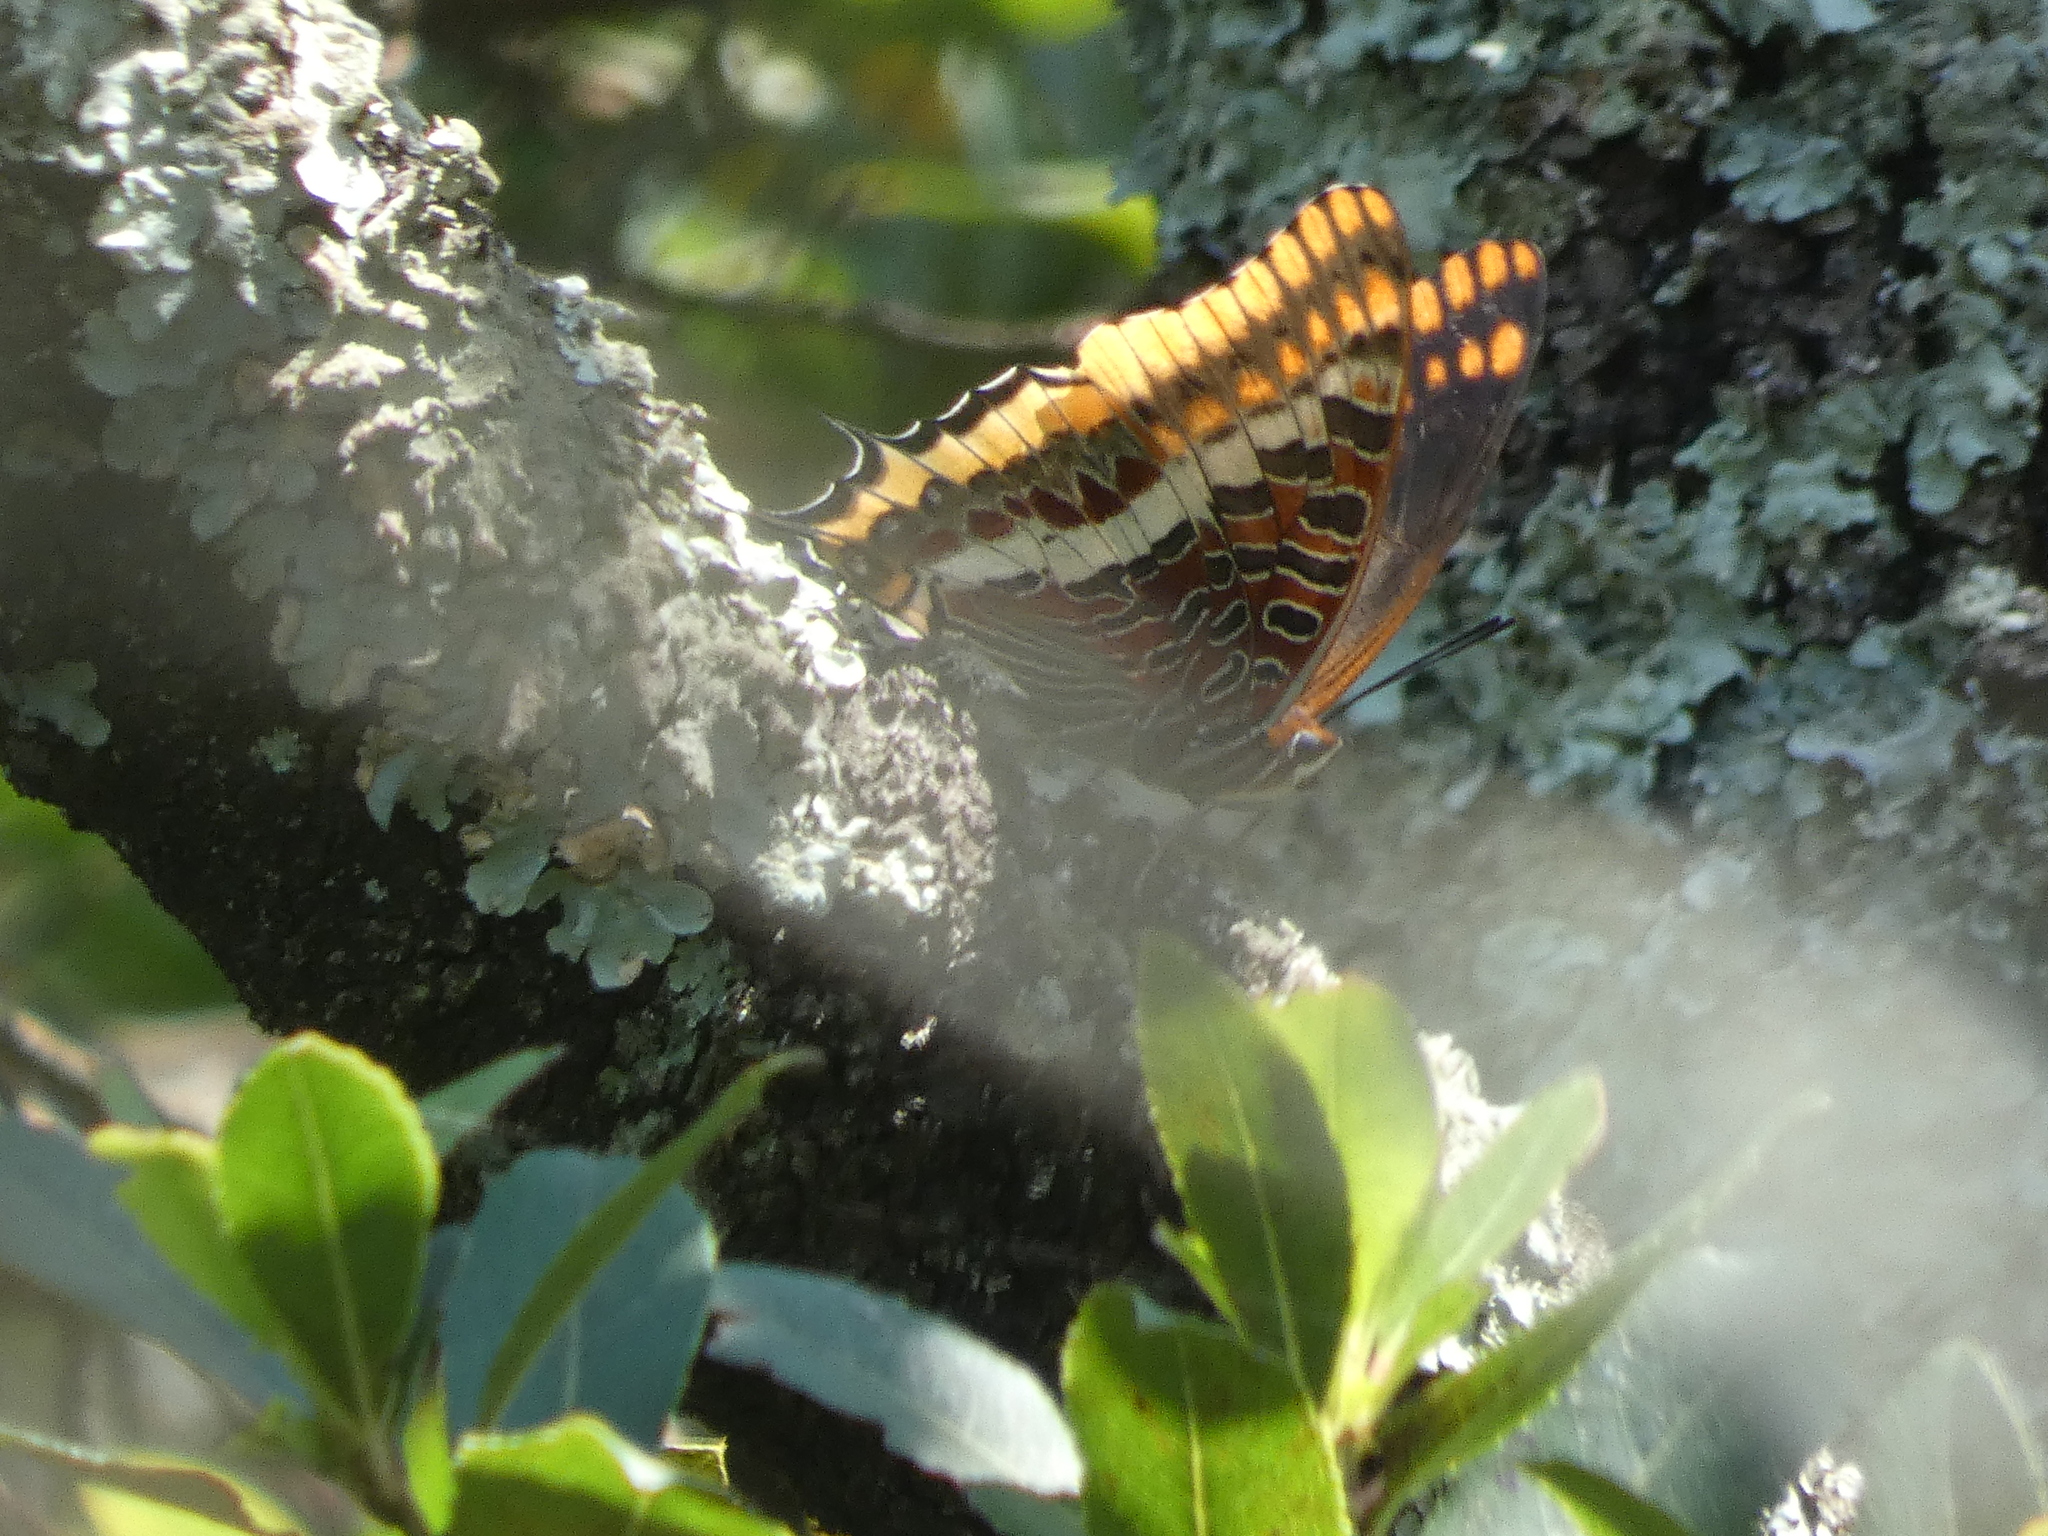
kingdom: Animalia
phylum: Arthropoda
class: Insecta
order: Lepidoptera
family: Nymphalidae
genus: Charaxes
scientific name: Charaxes jasius
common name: Two tailed pasha
